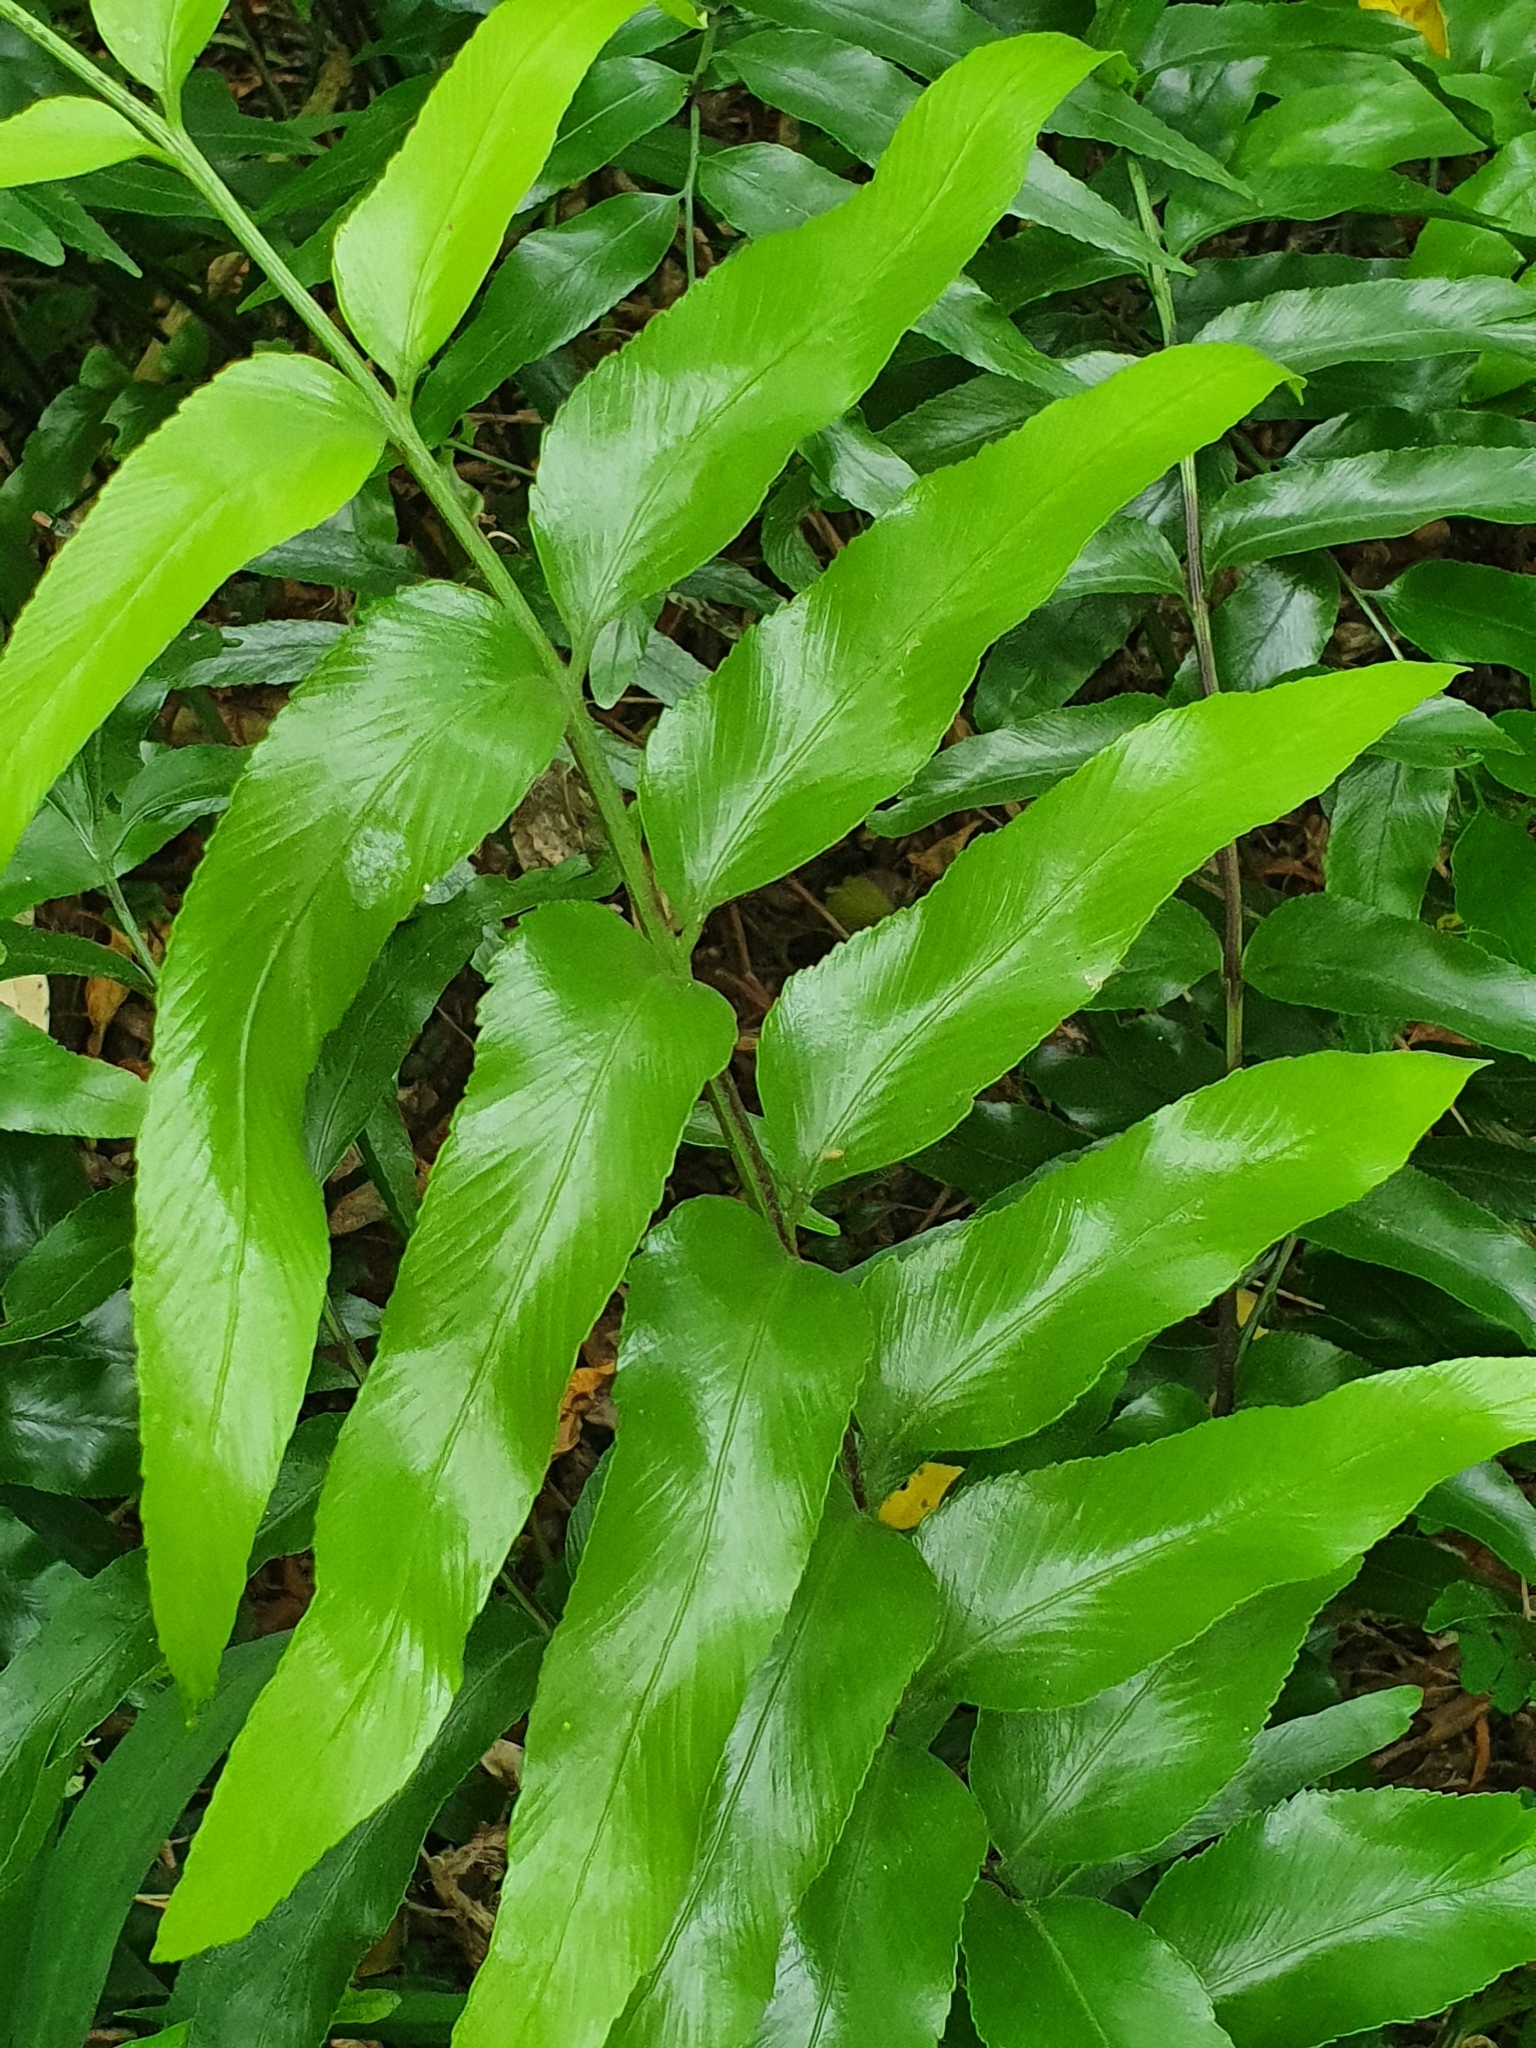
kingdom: Plantae
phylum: Tracheophyta
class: Polypodiopsida
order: Polypodiales
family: Aspleniaceae
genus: Asplenium
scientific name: Asplenium oblongifolium
